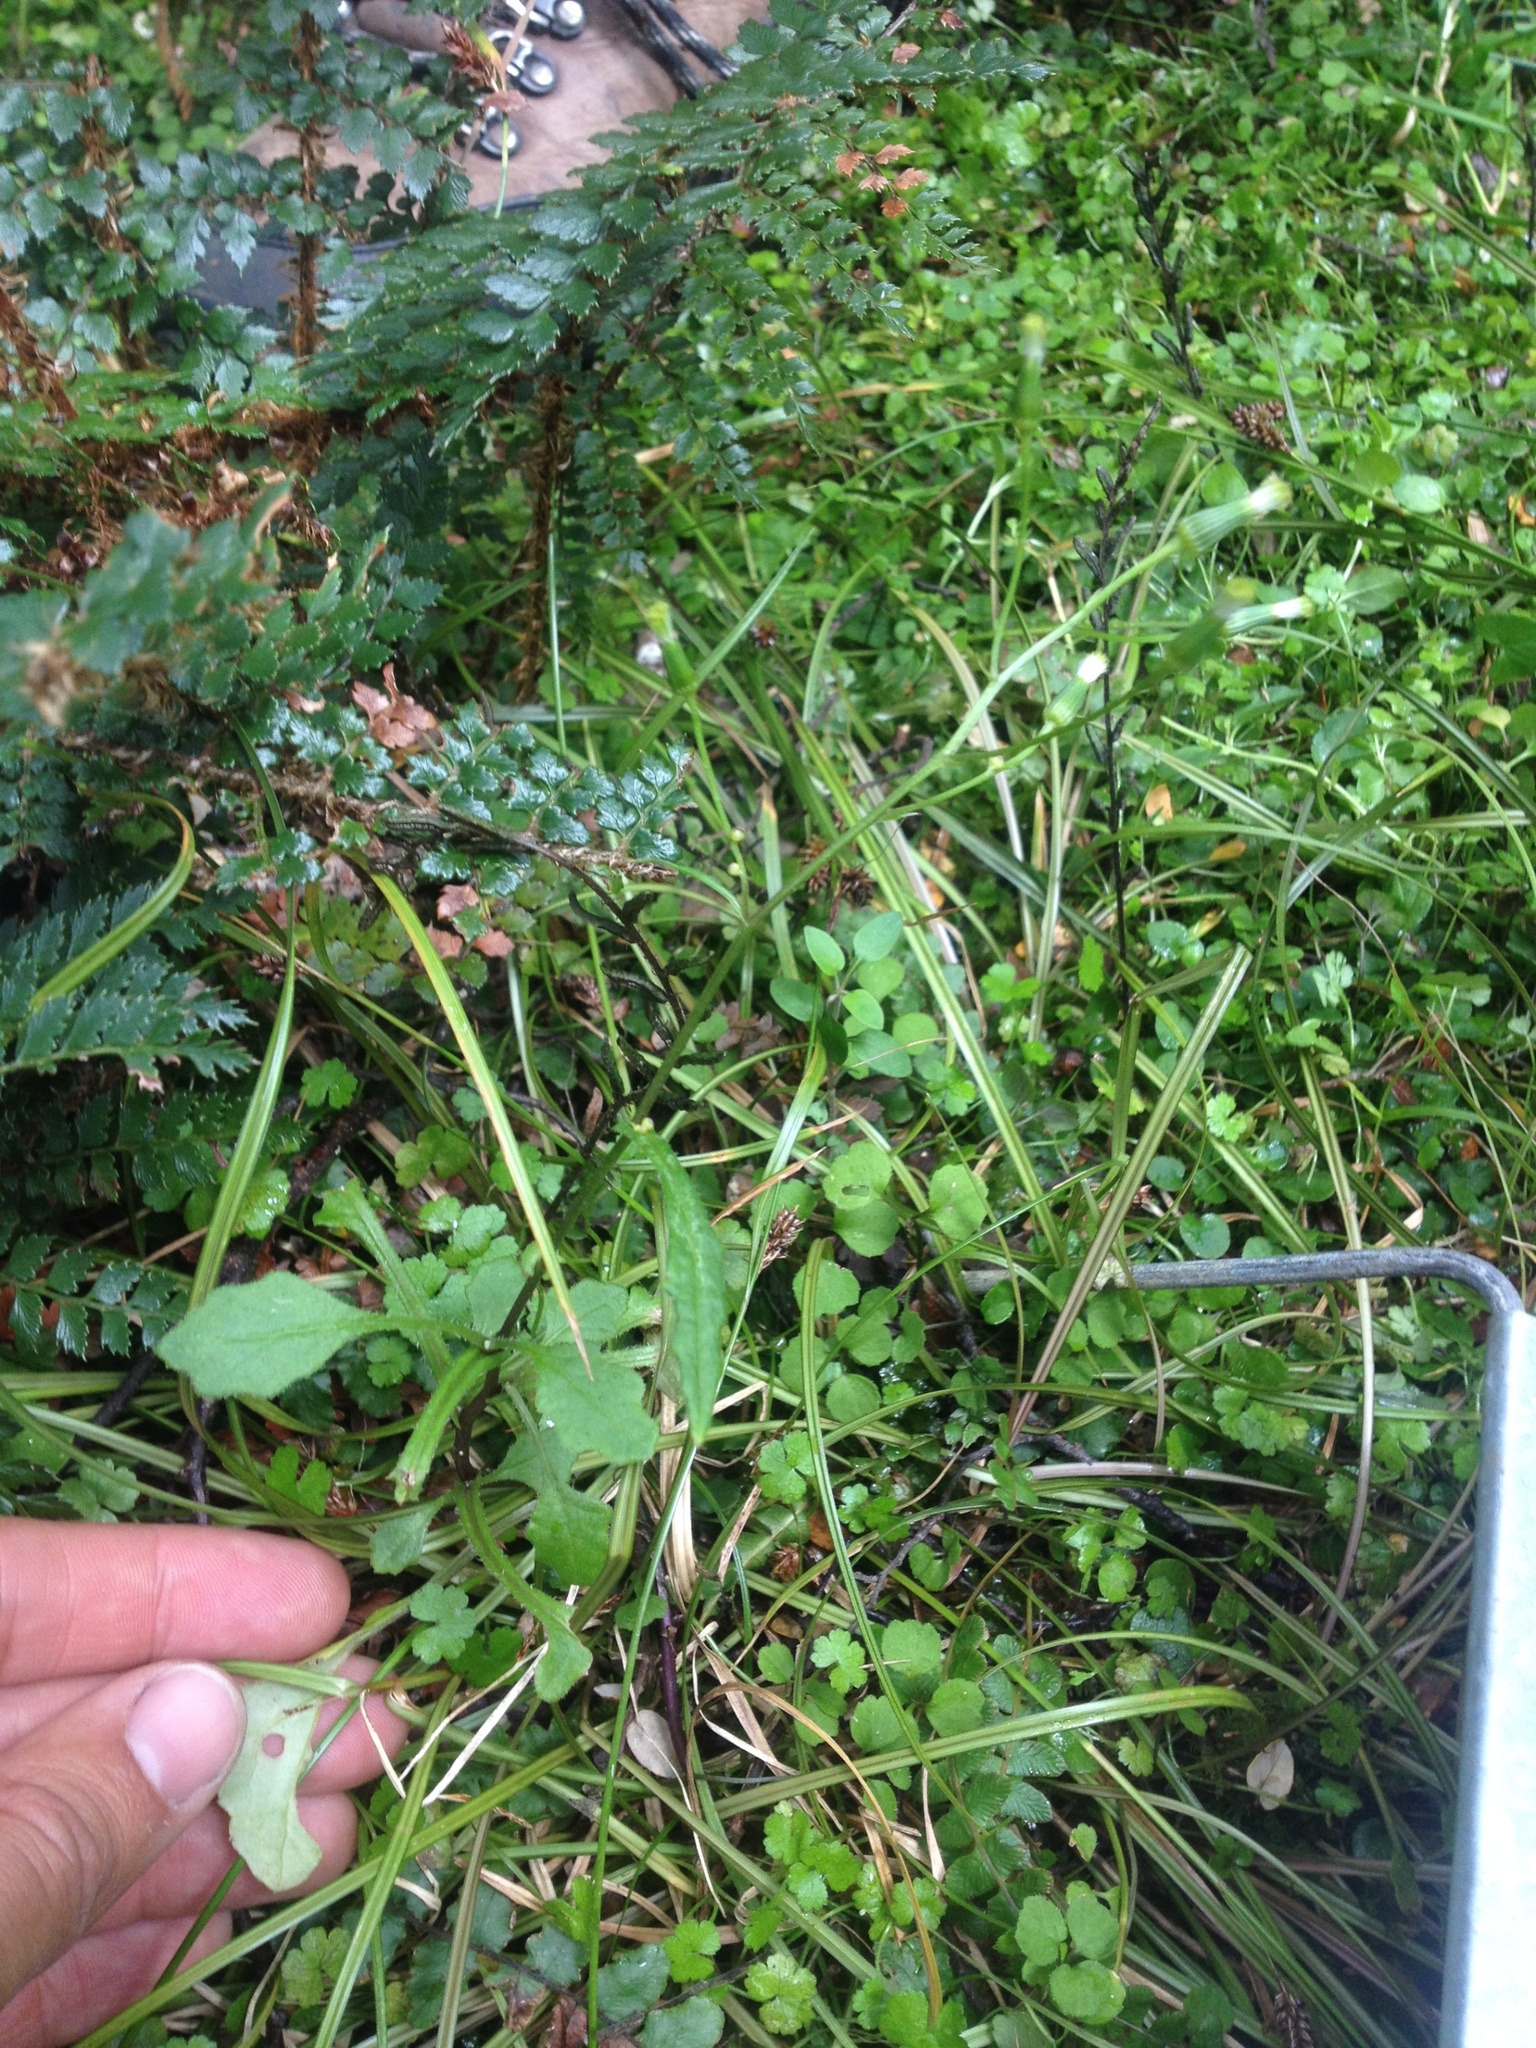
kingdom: Plantae
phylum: Tracheophyta
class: Magnoliopsida
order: Asterales
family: Asteraceae
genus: Senecio
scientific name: Senecio wairauensis
